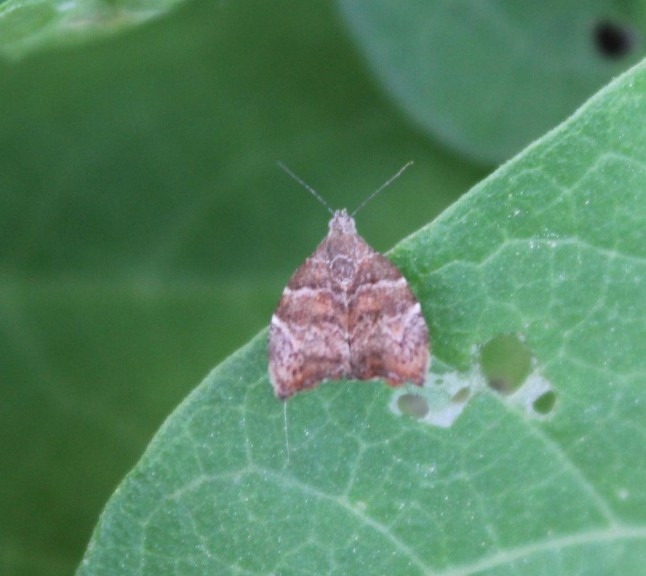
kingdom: Animalia
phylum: Arthropoda
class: Insecta
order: Lepidoptera
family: Choreutidae
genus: Anthophila
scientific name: Anthophila nemorana
